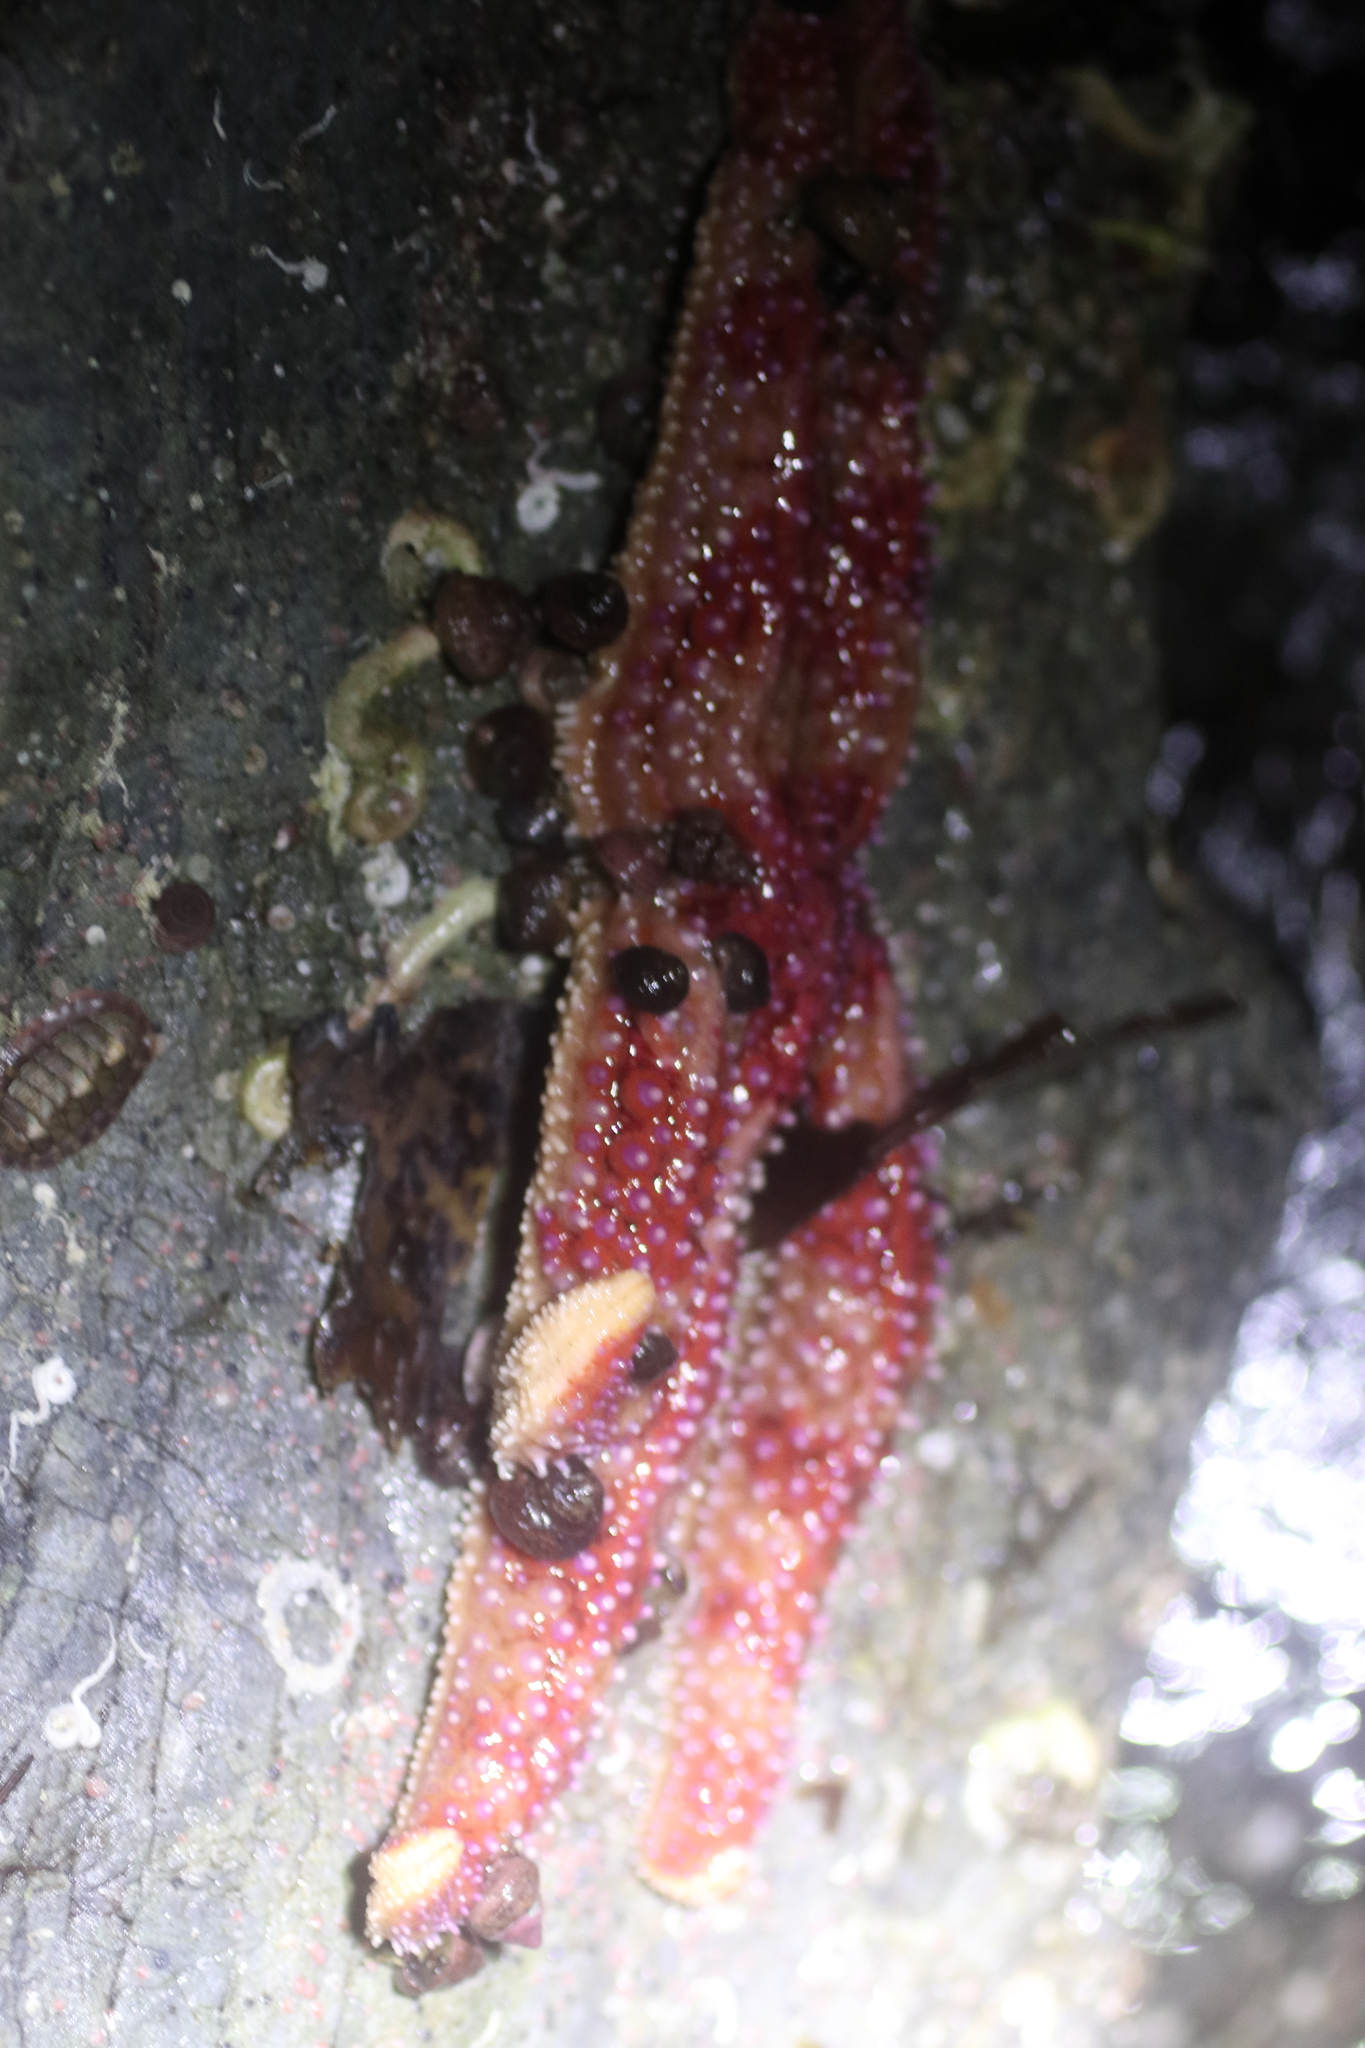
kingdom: Animalia
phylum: Echinodermata
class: Asteroidea
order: Forcipulatida
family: Asteriidae
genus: Orthasterias
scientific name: Orthasterias koehleri
